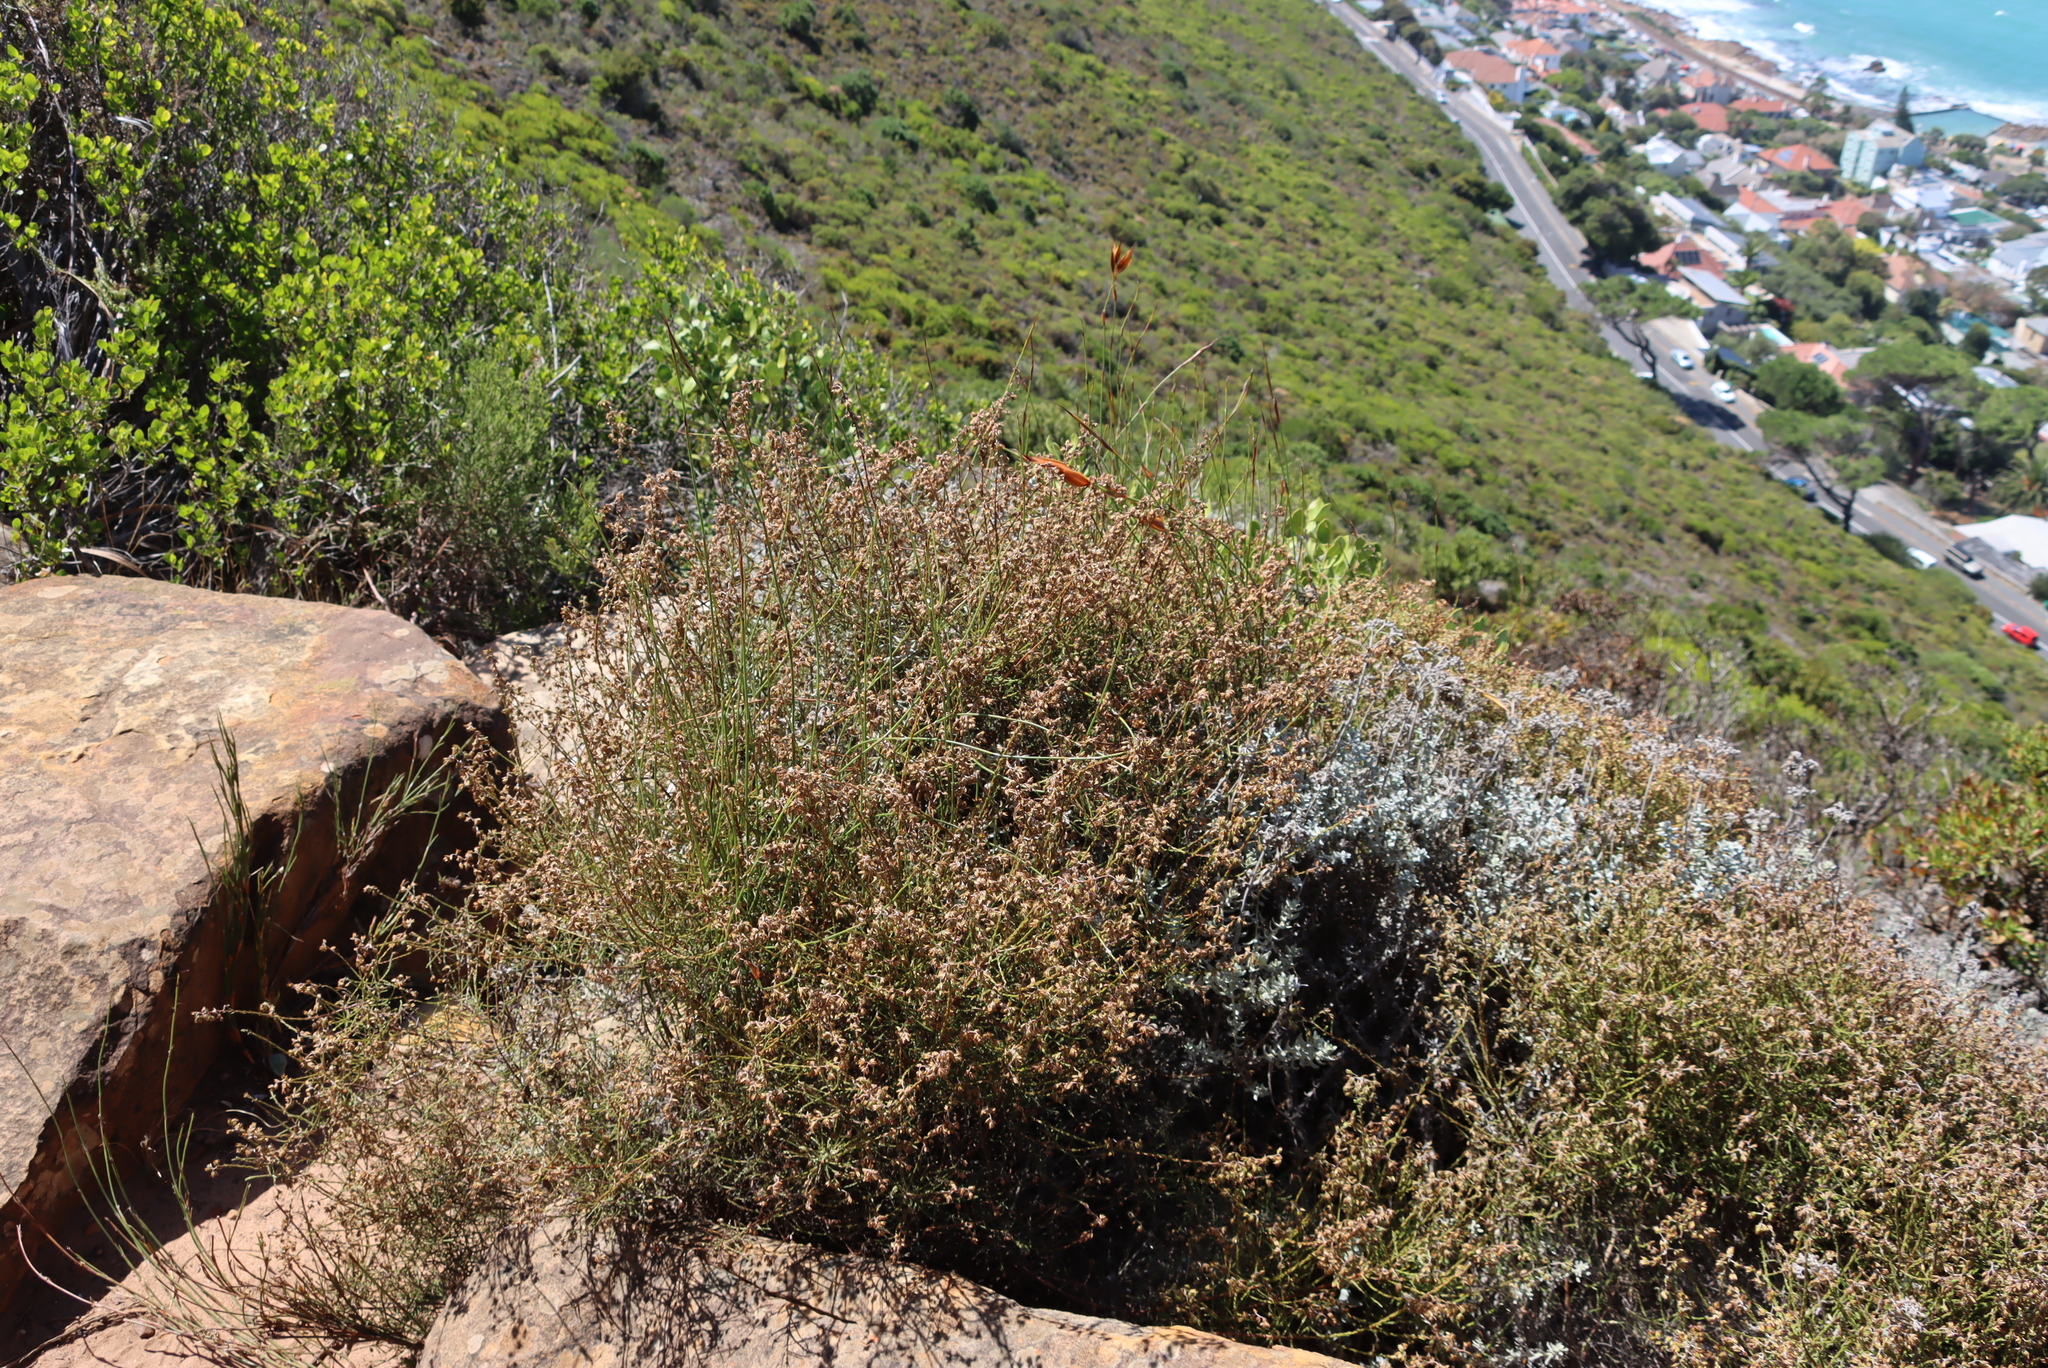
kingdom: Plantae
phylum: Tracheophyta
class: Magnoliopsida
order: Asterales
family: Asteraceae
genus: Myrovernix
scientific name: Myrovernix scaber
